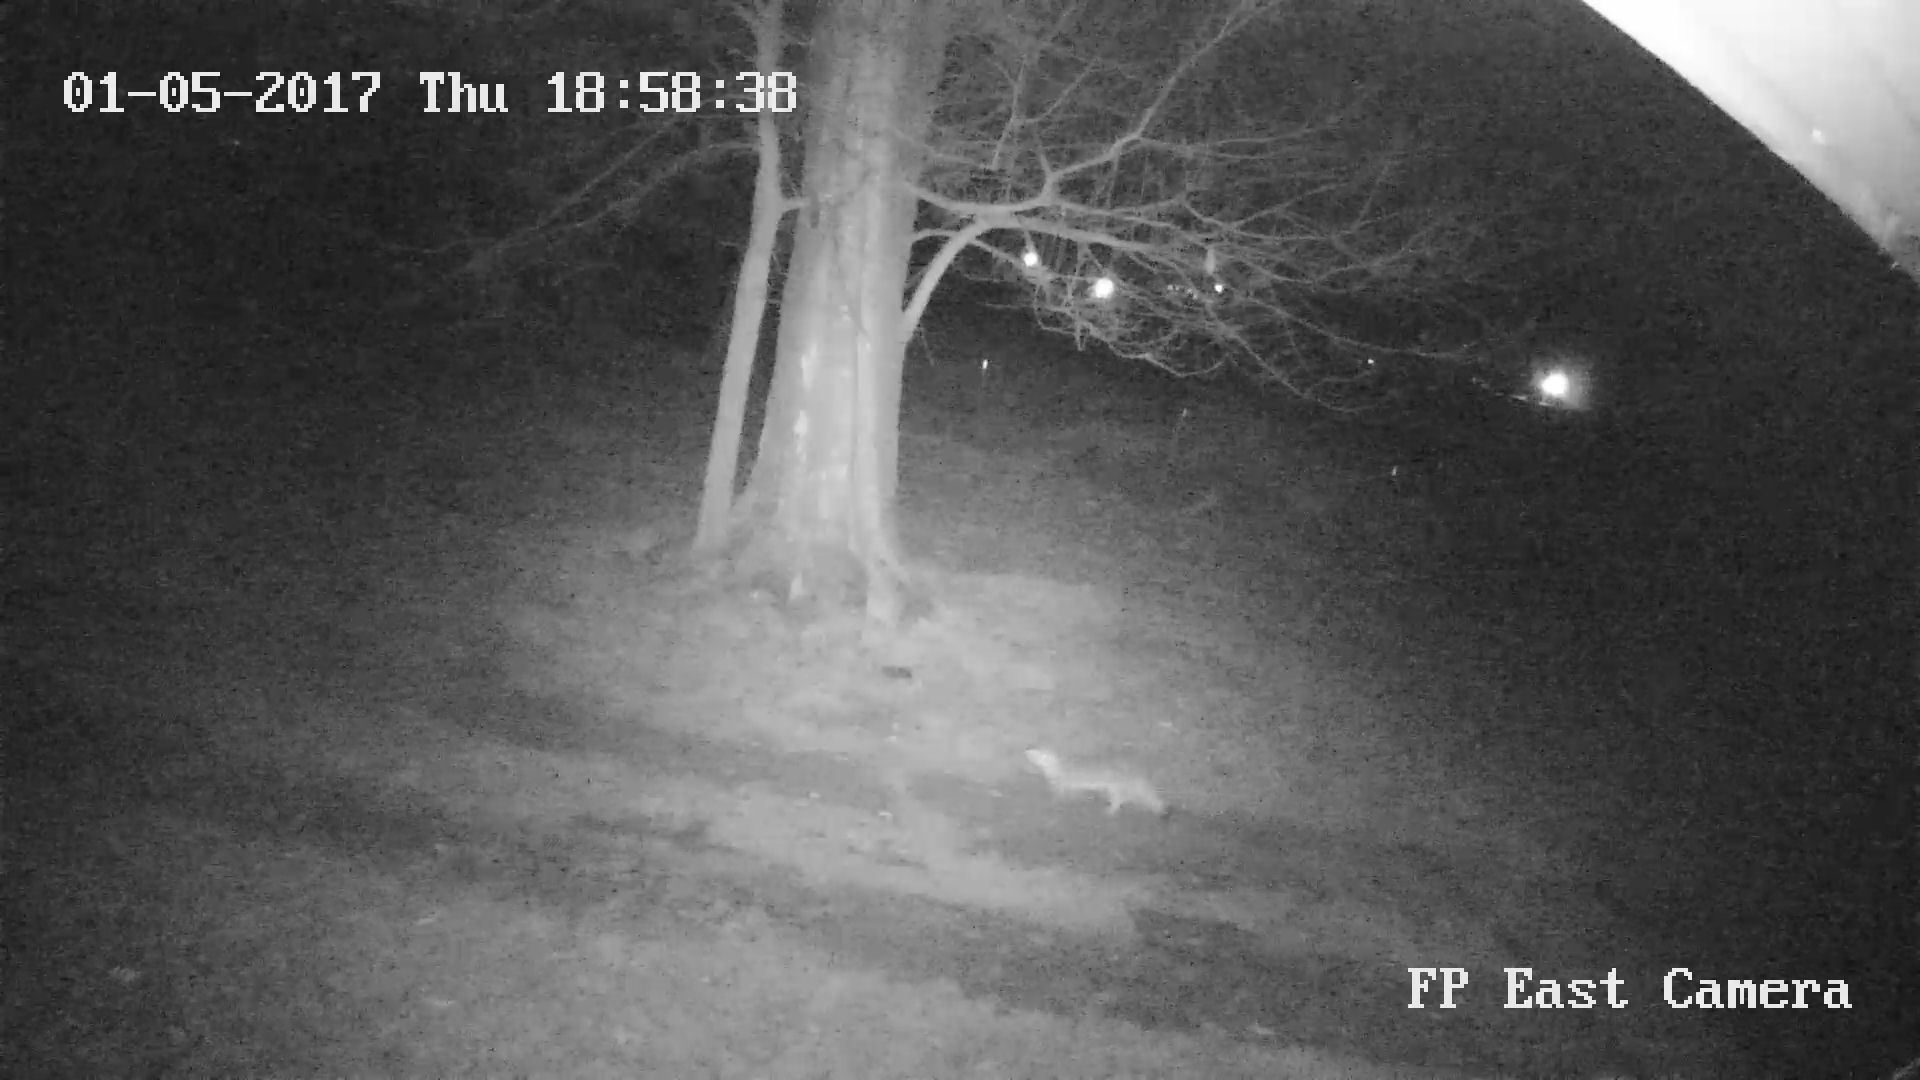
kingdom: Animalia
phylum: Chordata
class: Mammalia
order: Carnivora
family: Canidae
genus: Urocyon
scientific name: Urocyon cinereoargenteus
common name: Gray fox
